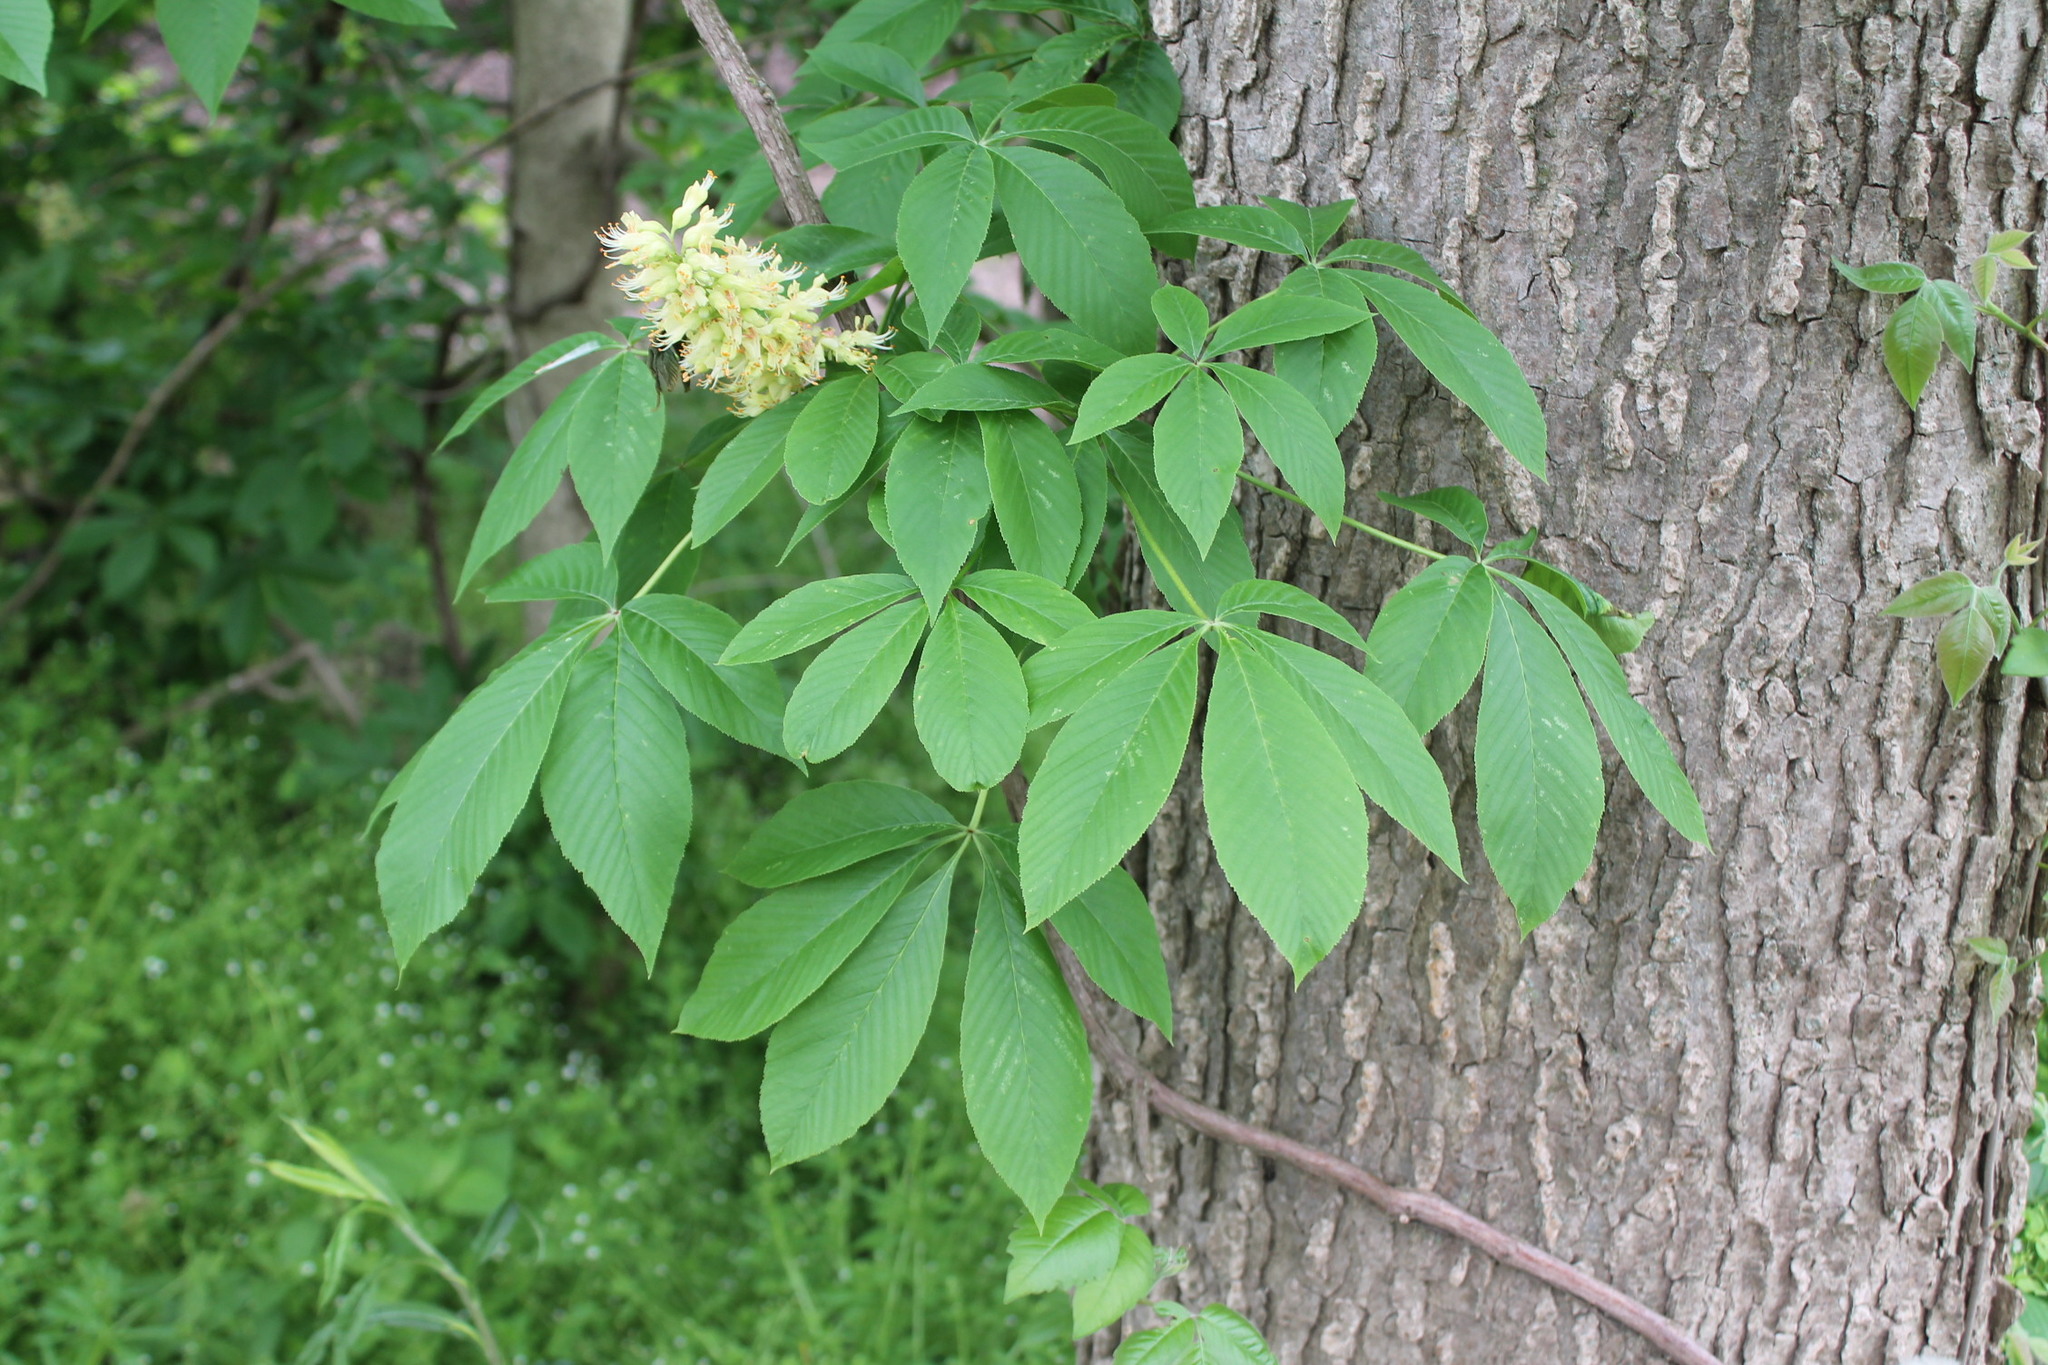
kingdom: Plantae
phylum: Tracheophyta
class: Magnoliopsida
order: Sapindales
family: Sapindaceae
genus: Aesculus
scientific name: Aesculus glabra
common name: Ohio buckeye
